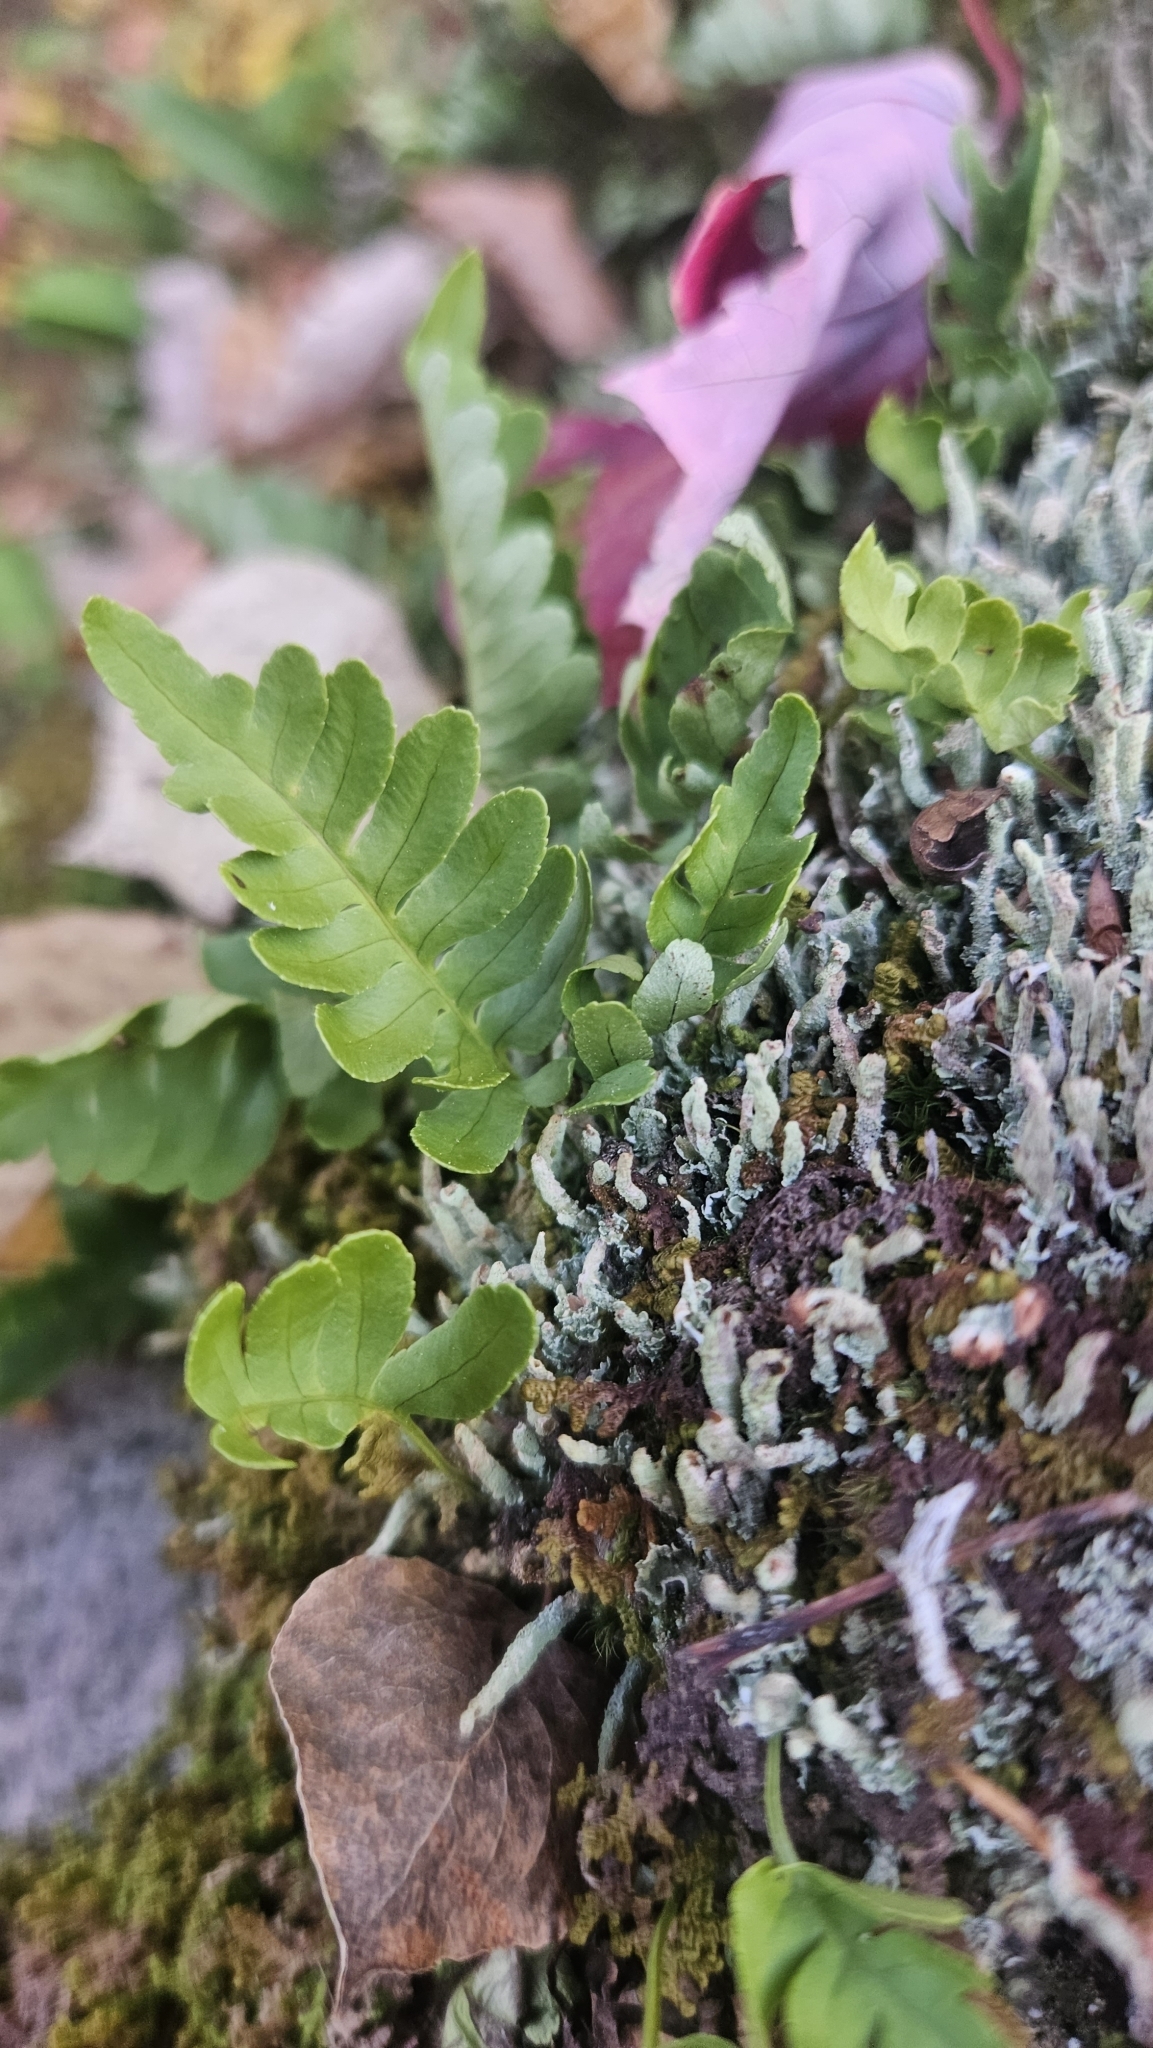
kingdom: Plantae
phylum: Tracheophyta
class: Polypodiopsida
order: Polypodiales
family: Polypodiaceae
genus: Polypodium
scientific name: Polypodium virginianum
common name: American wall fern
